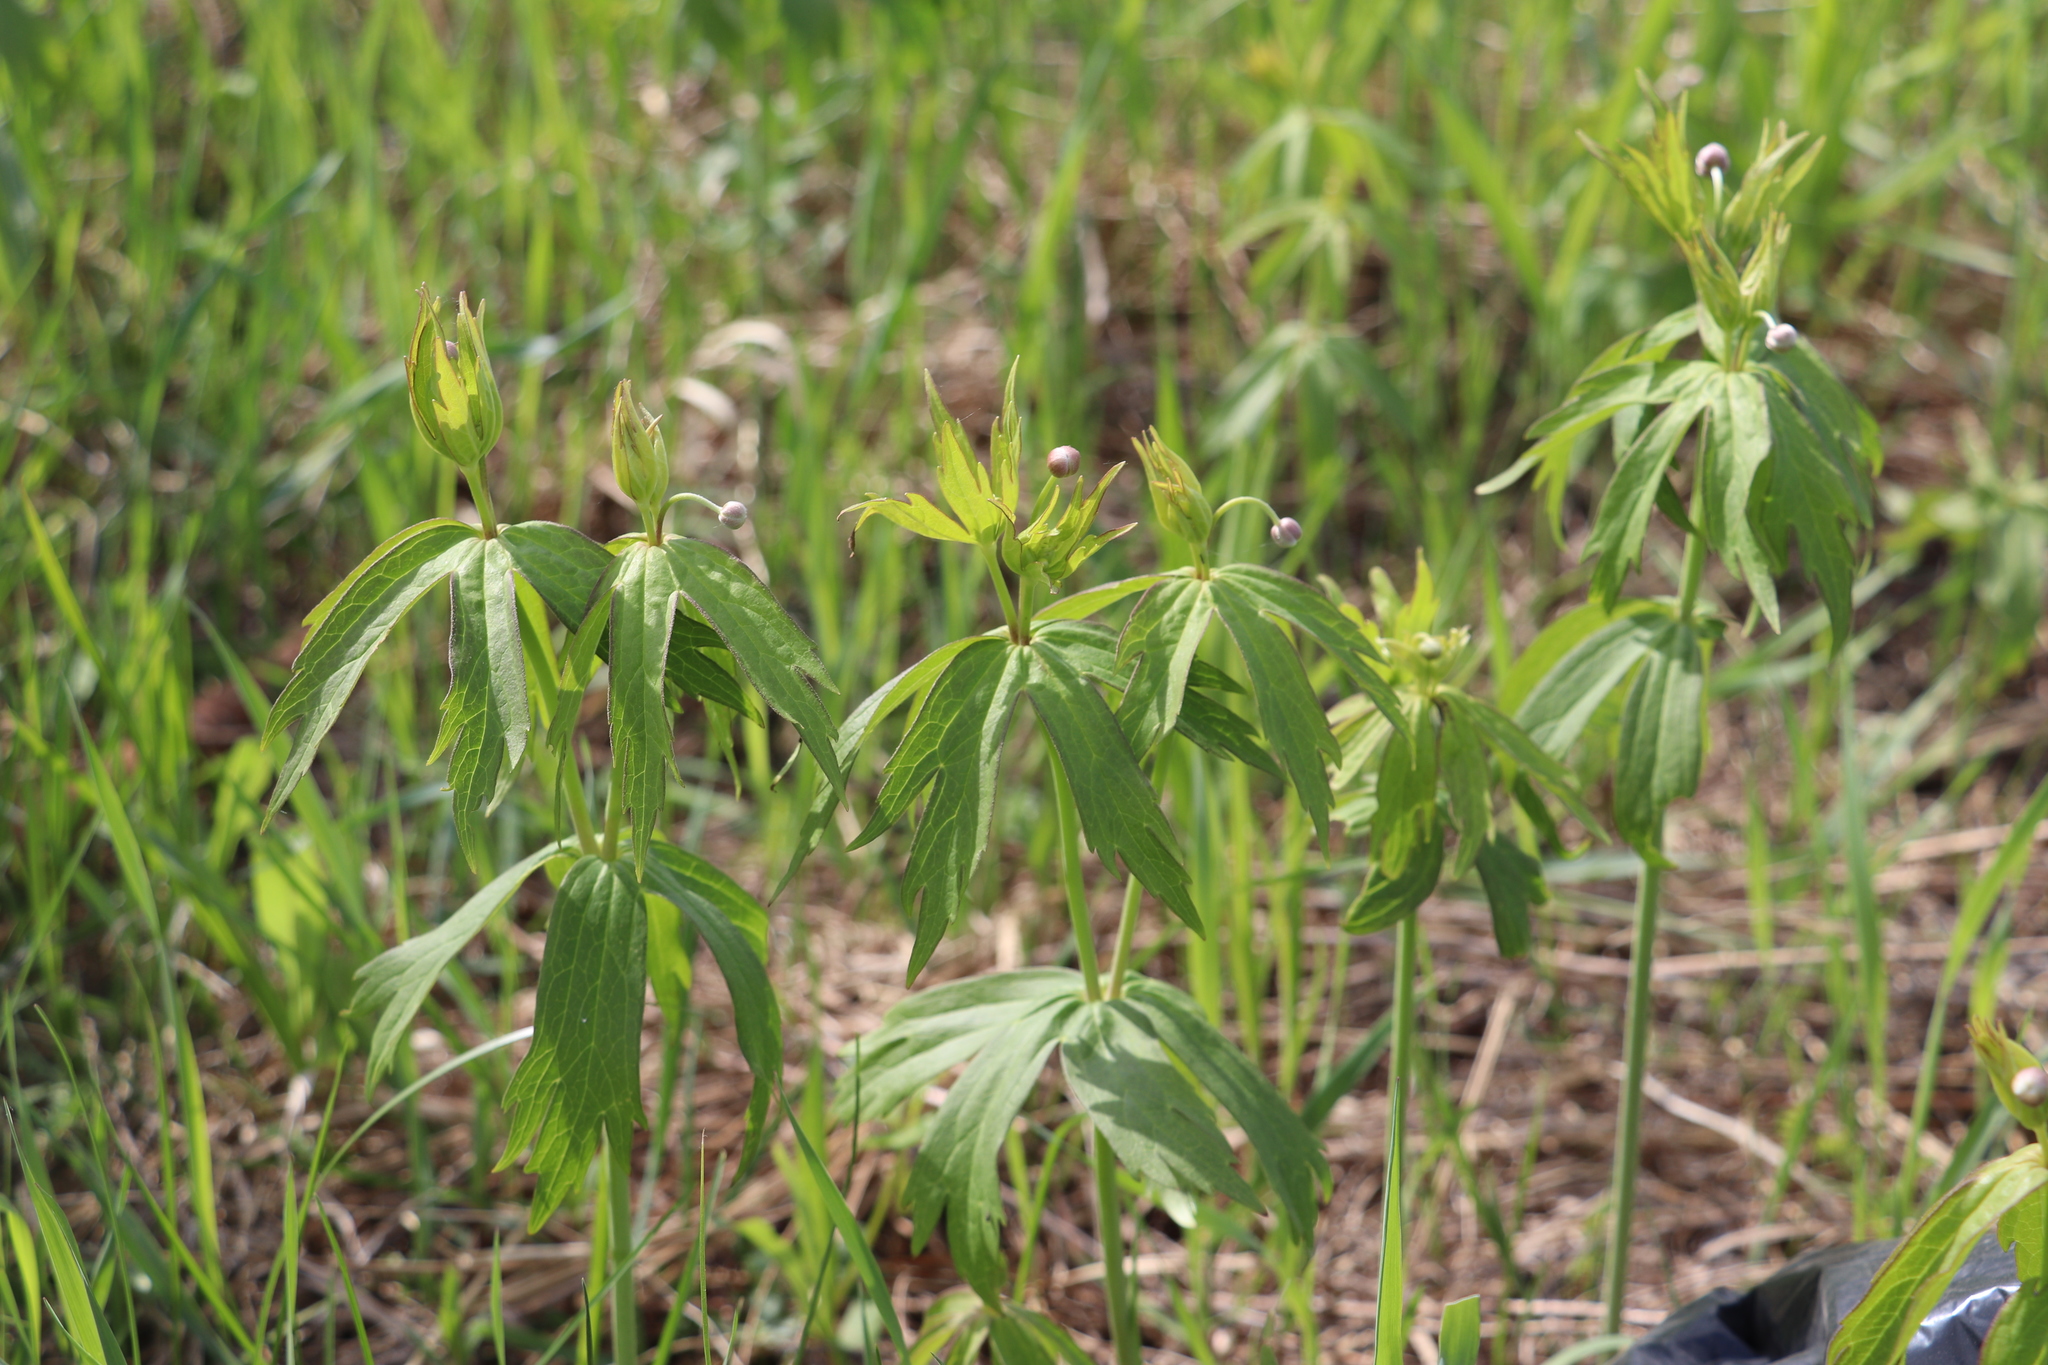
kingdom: Plantae
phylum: Tracheophyta
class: Magnoliopsida
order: Ranunculales
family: Ranunculaceae
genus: Anemonastrum
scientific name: Anemonastrum dichotomum
